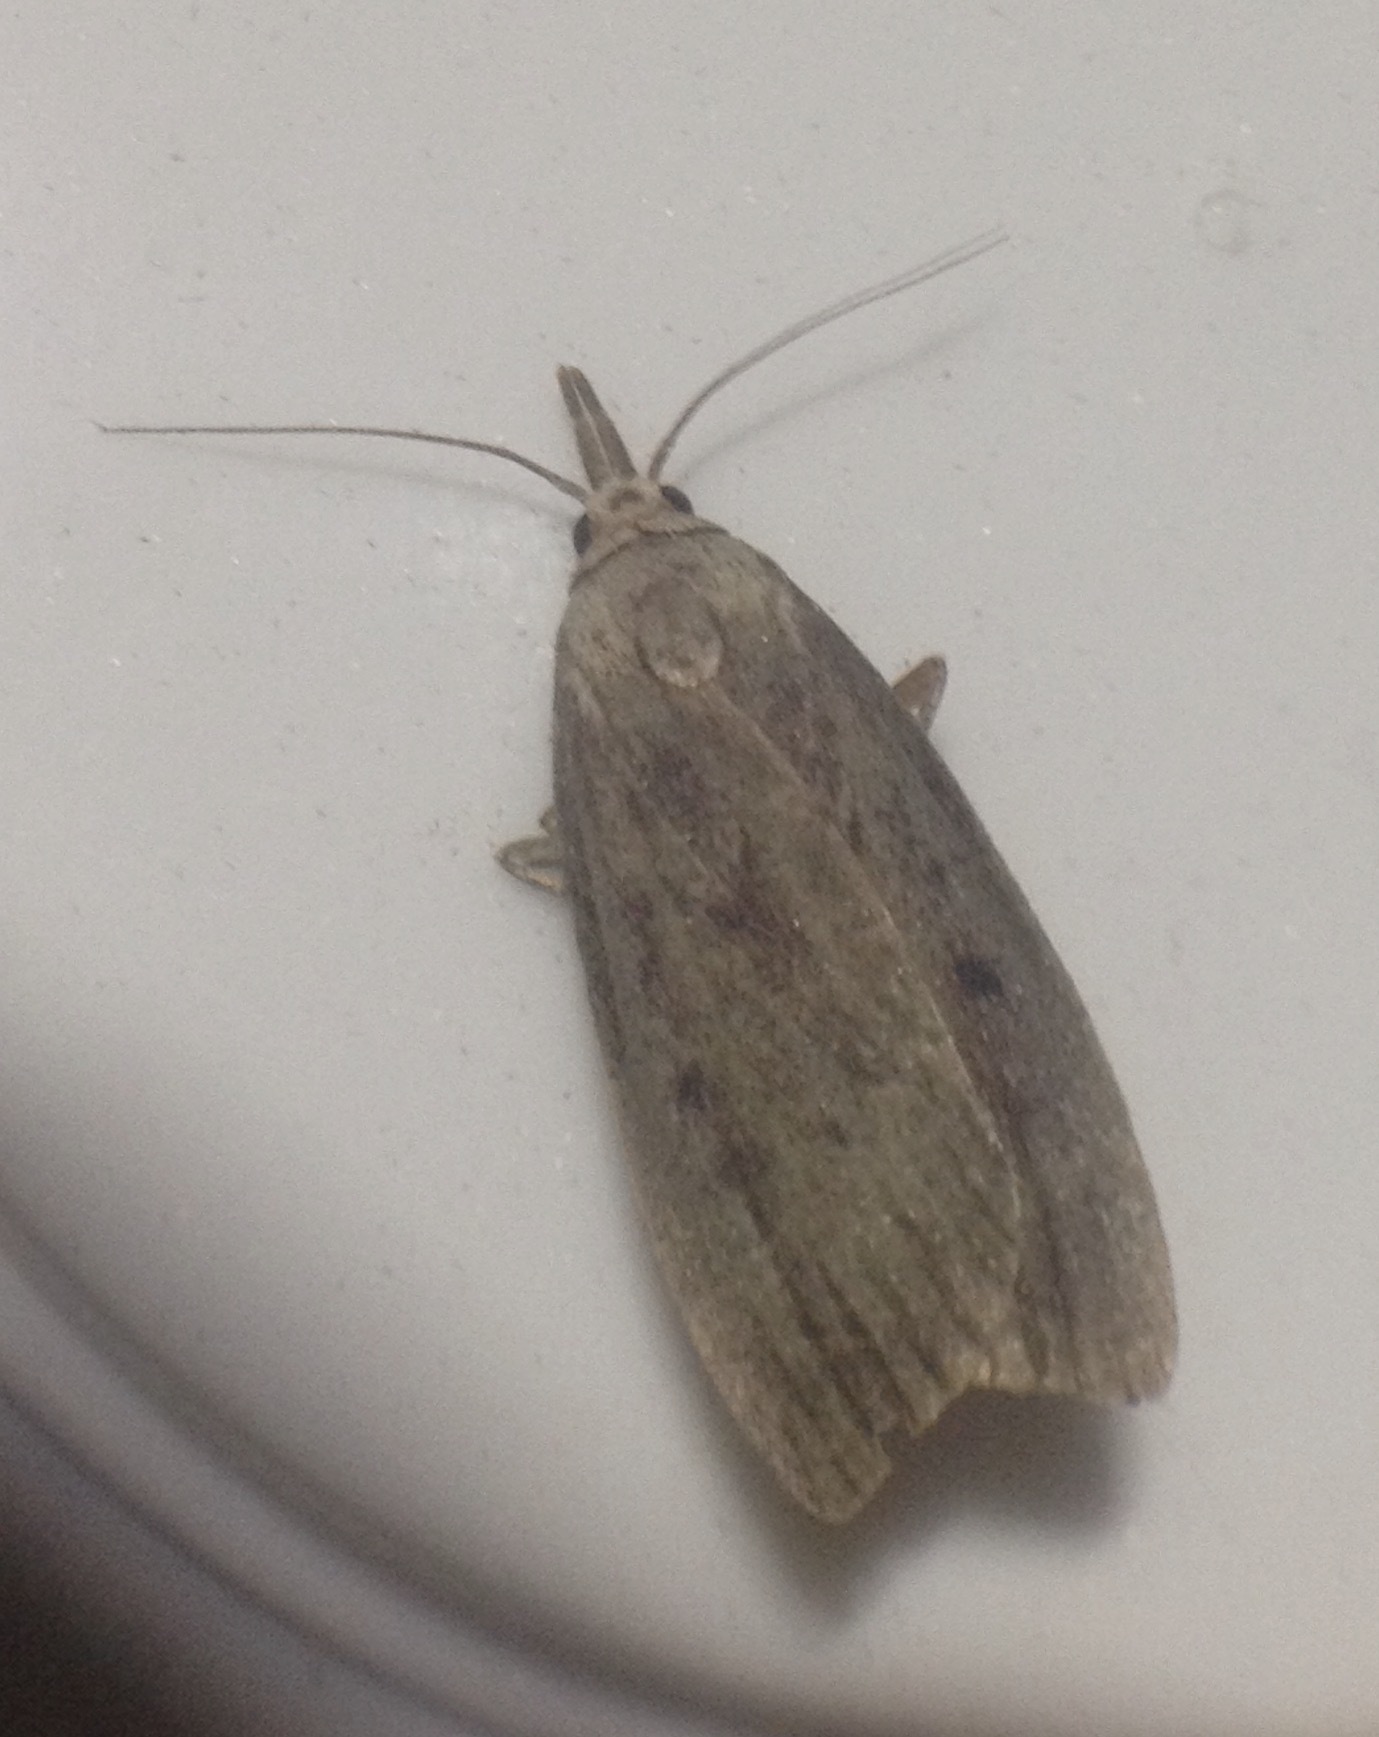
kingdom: Animalia
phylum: Arthropoda
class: Insecta
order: Lepidoptera
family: Pyralidae
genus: Aphomia
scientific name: Aphomia sociella
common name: Bee moth
